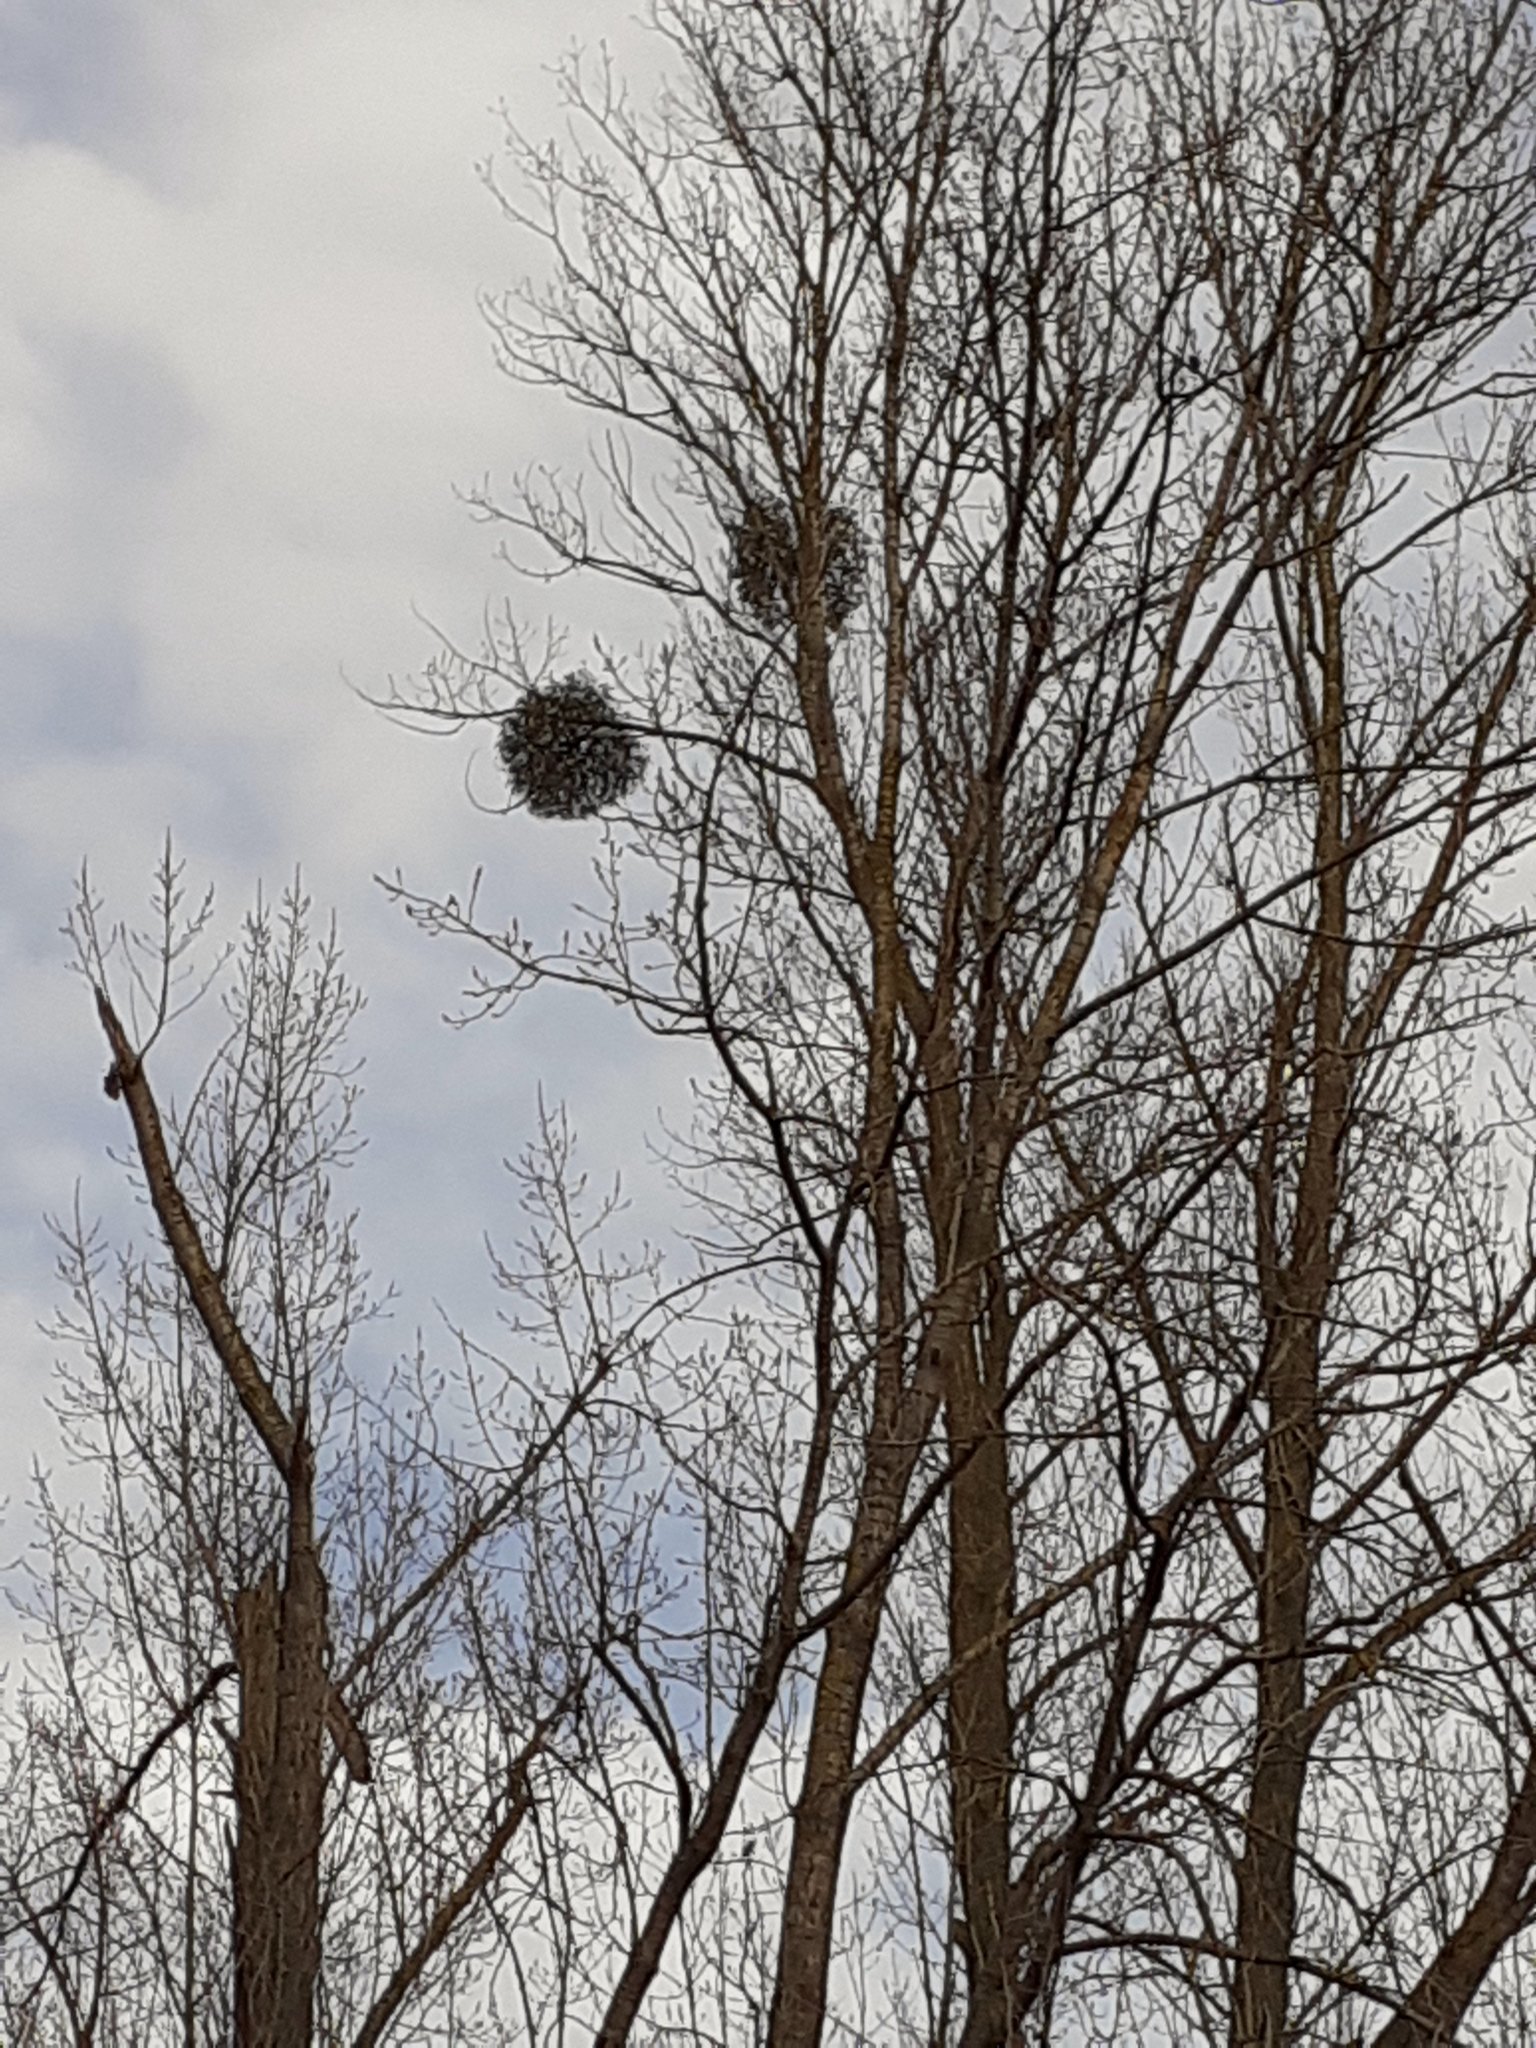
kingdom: Plantae
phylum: Tracheophyta
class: Magnoliopsida
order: Santalales
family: Viscaceae
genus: Viscum
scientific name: Viscum album
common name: Mistletoe
